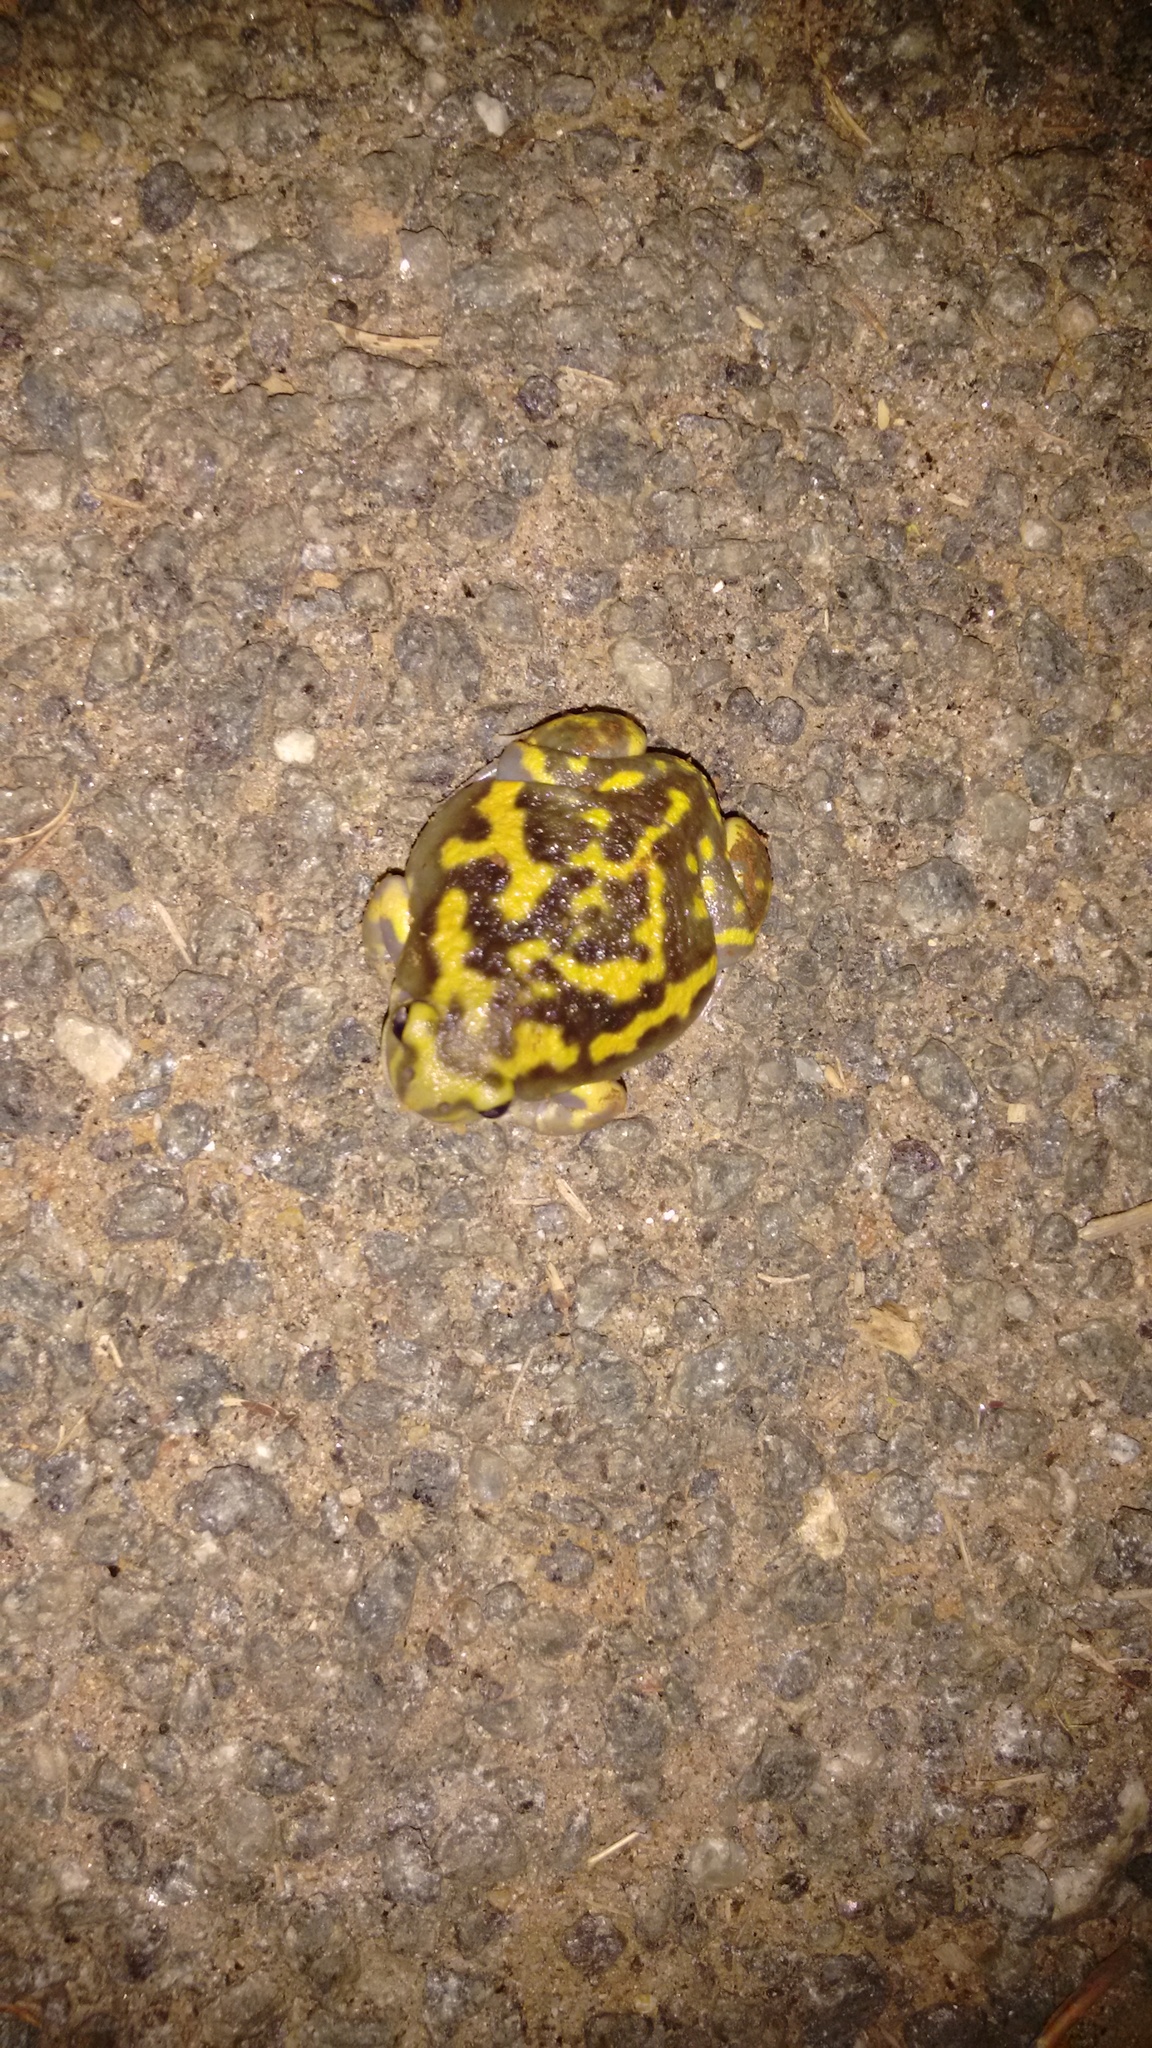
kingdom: Animalia
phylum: Chordata
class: Amphibia
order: Anura
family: Microhylidae
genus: Uperodon
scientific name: Uperodon systoma
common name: Balloon frog
